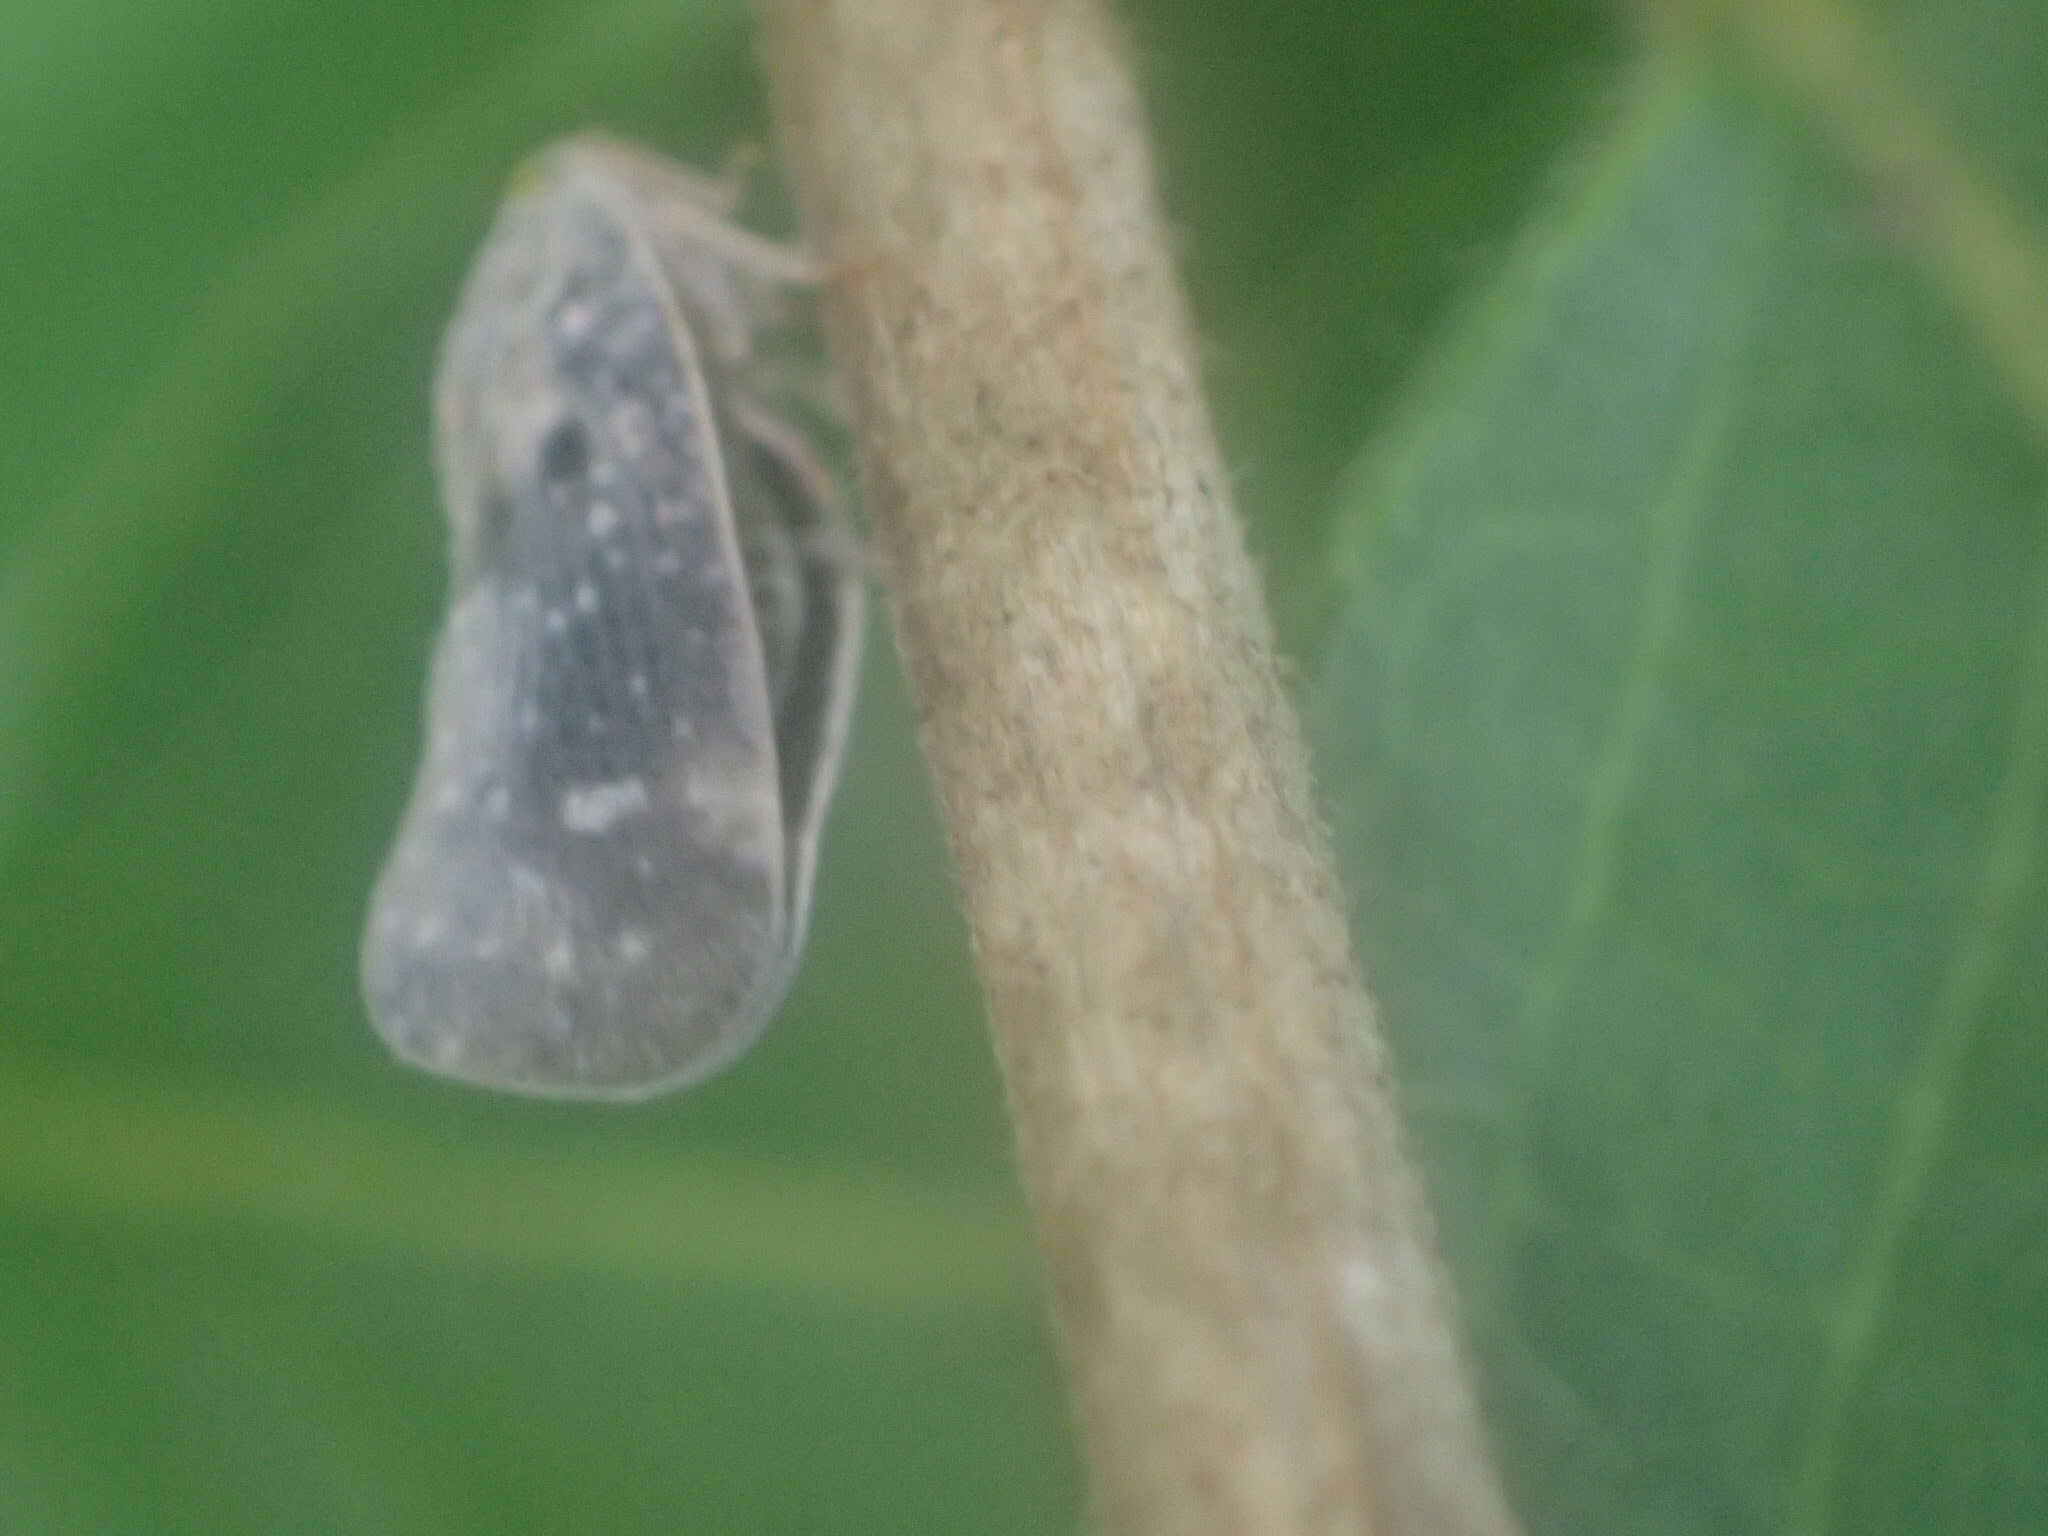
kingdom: Animalia
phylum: Arthropoda
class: Insecta
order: Hemiptera
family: Flatidae
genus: Metcalfa
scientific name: Metcalfa pruinosa
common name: Citrus flatid planthopper
